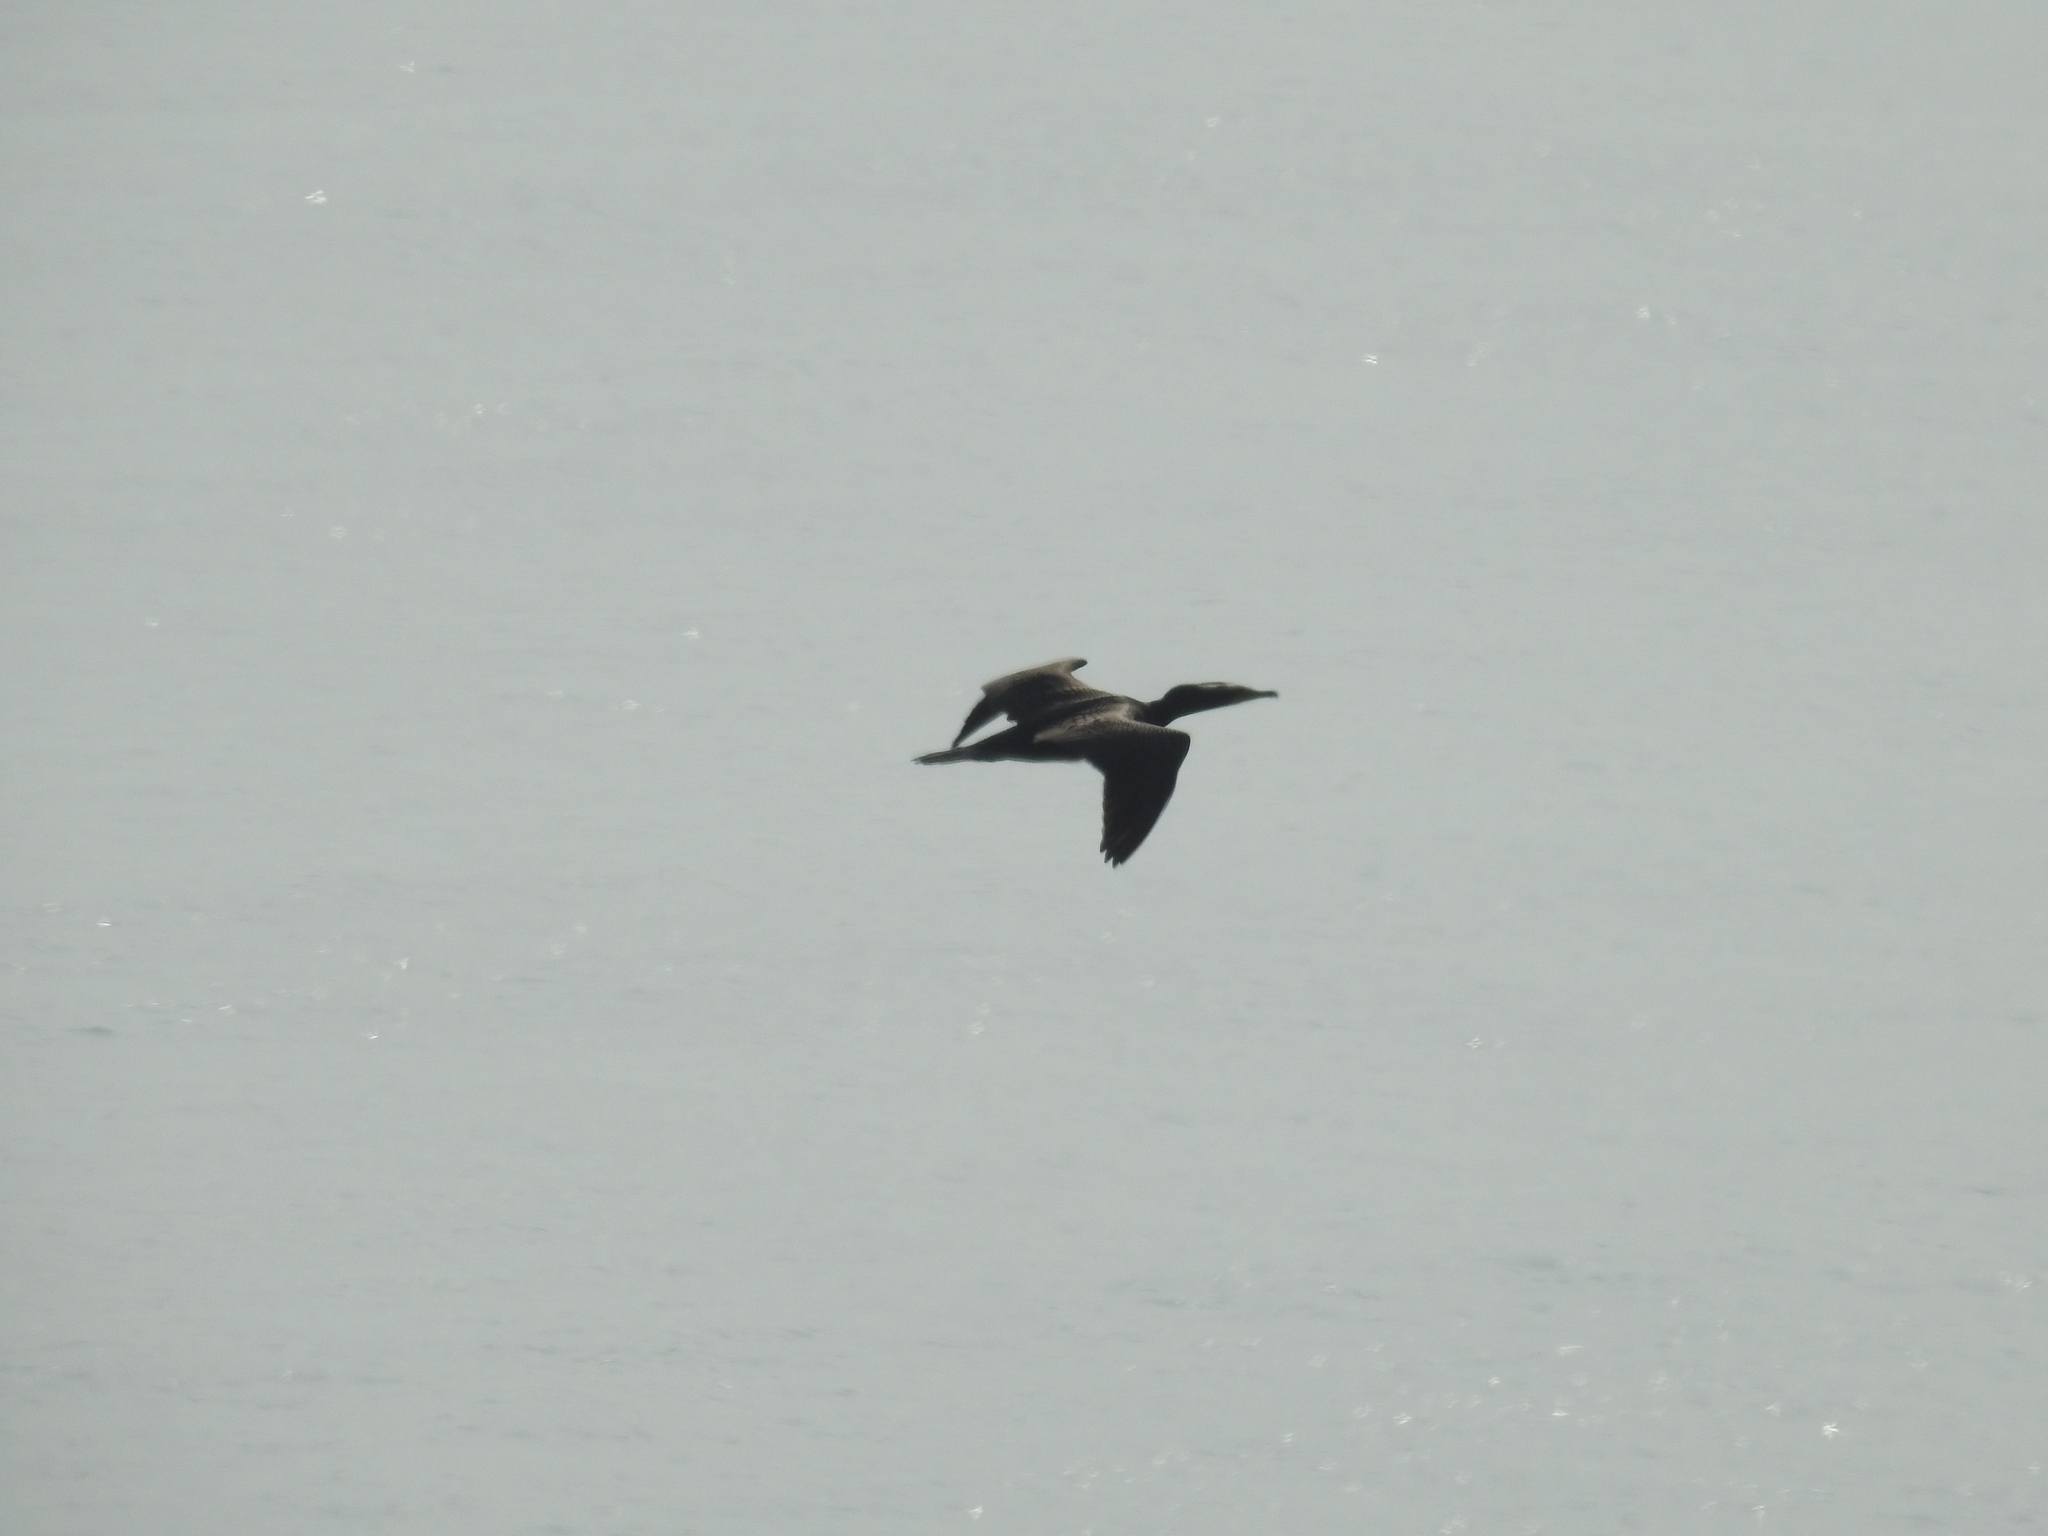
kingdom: Animalia
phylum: Chordata
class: Aves
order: Suliformes
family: Phalacrocoracidae
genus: Phalacrocorax
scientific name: Phalacrocorax auritus
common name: Double-crested cormorant
